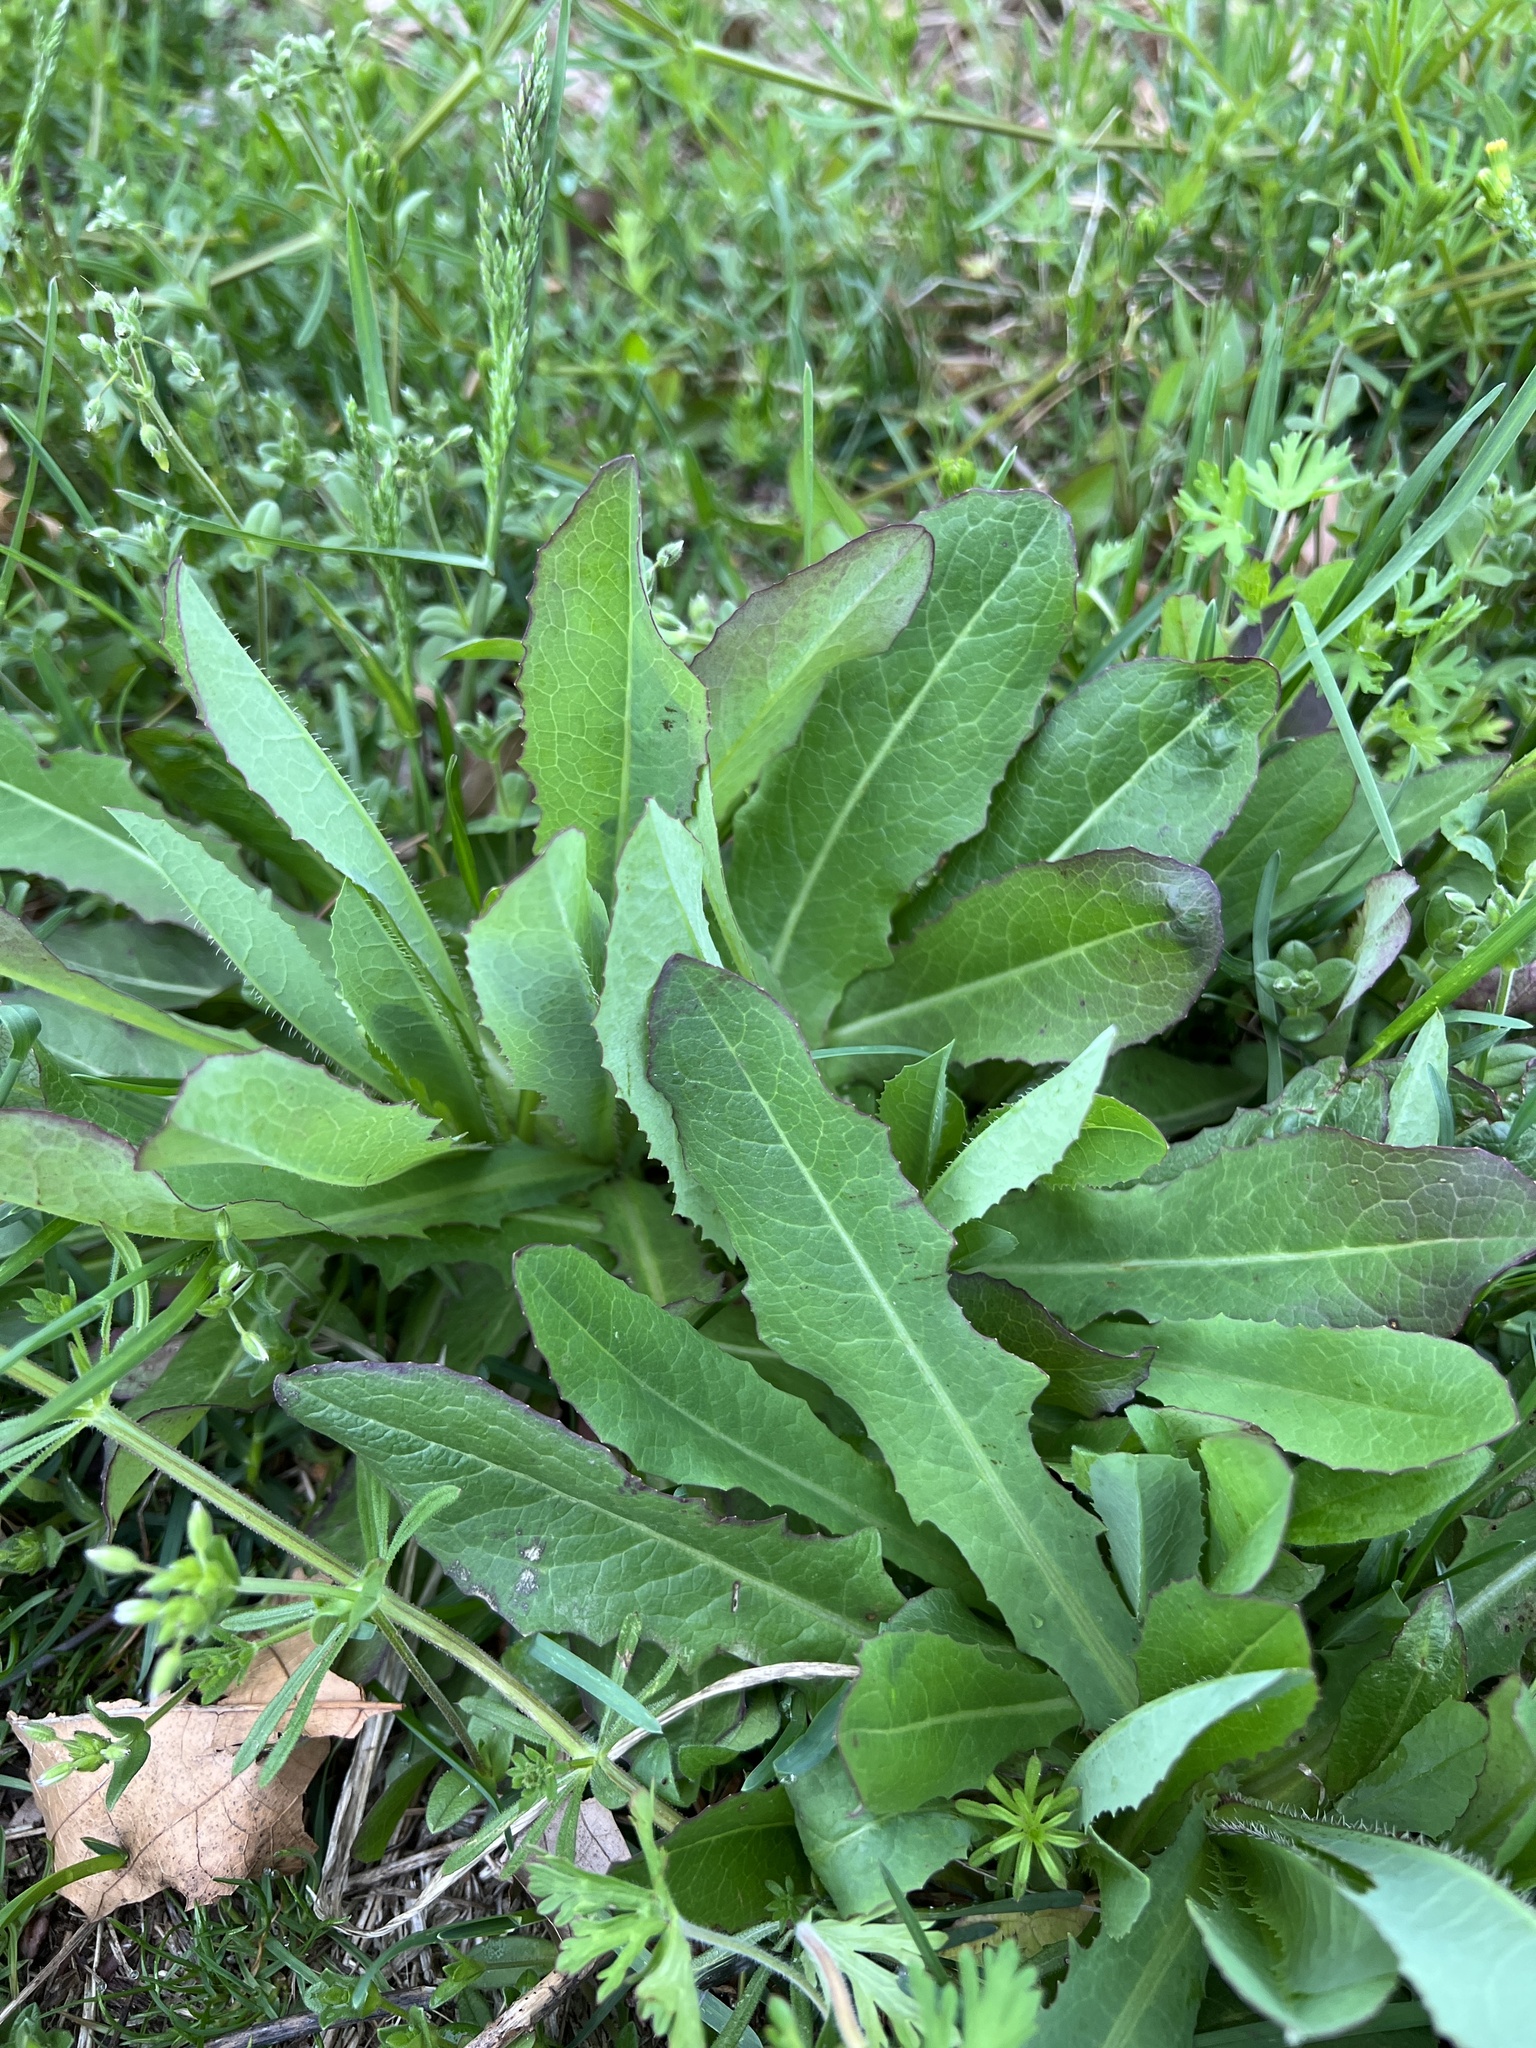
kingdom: Plantae
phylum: Tracheophyta
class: Magnoliopsida
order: Asterales
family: Asteraceae
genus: Lactuca
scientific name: Lactuca serriola
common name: Prickly lettuce
